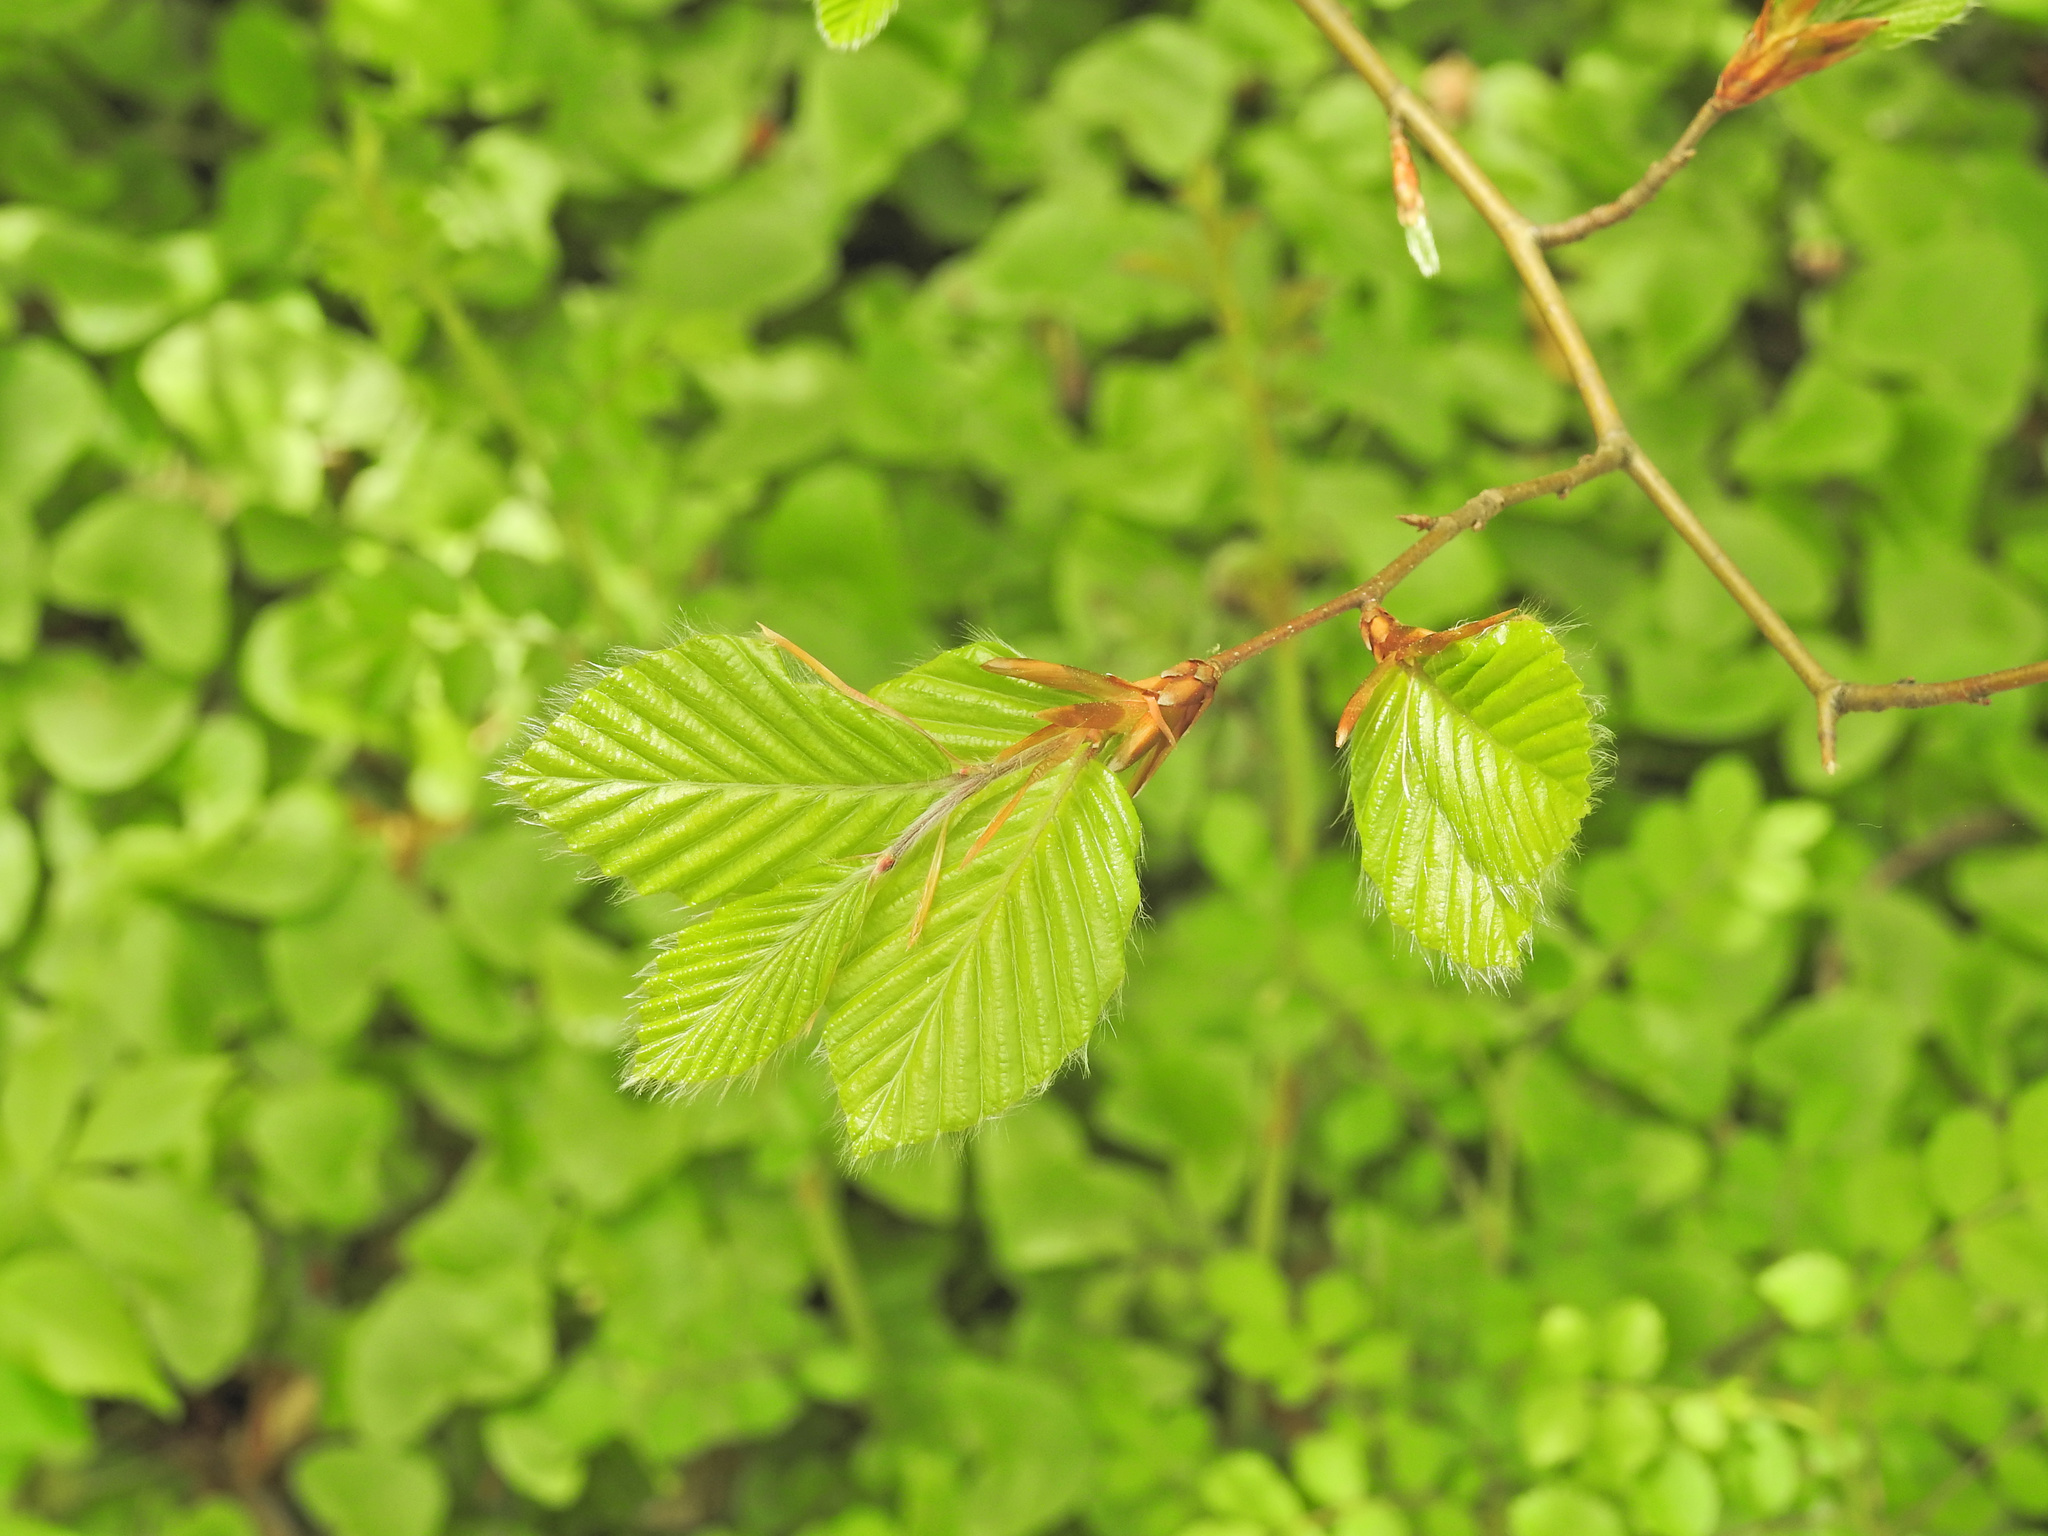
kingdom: Plantae
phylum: Tracheophyta
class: Magnoliopsida
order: Fagales
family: Fagaceae
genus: Fagus
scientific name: Fagus sylvatica
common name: Beech
